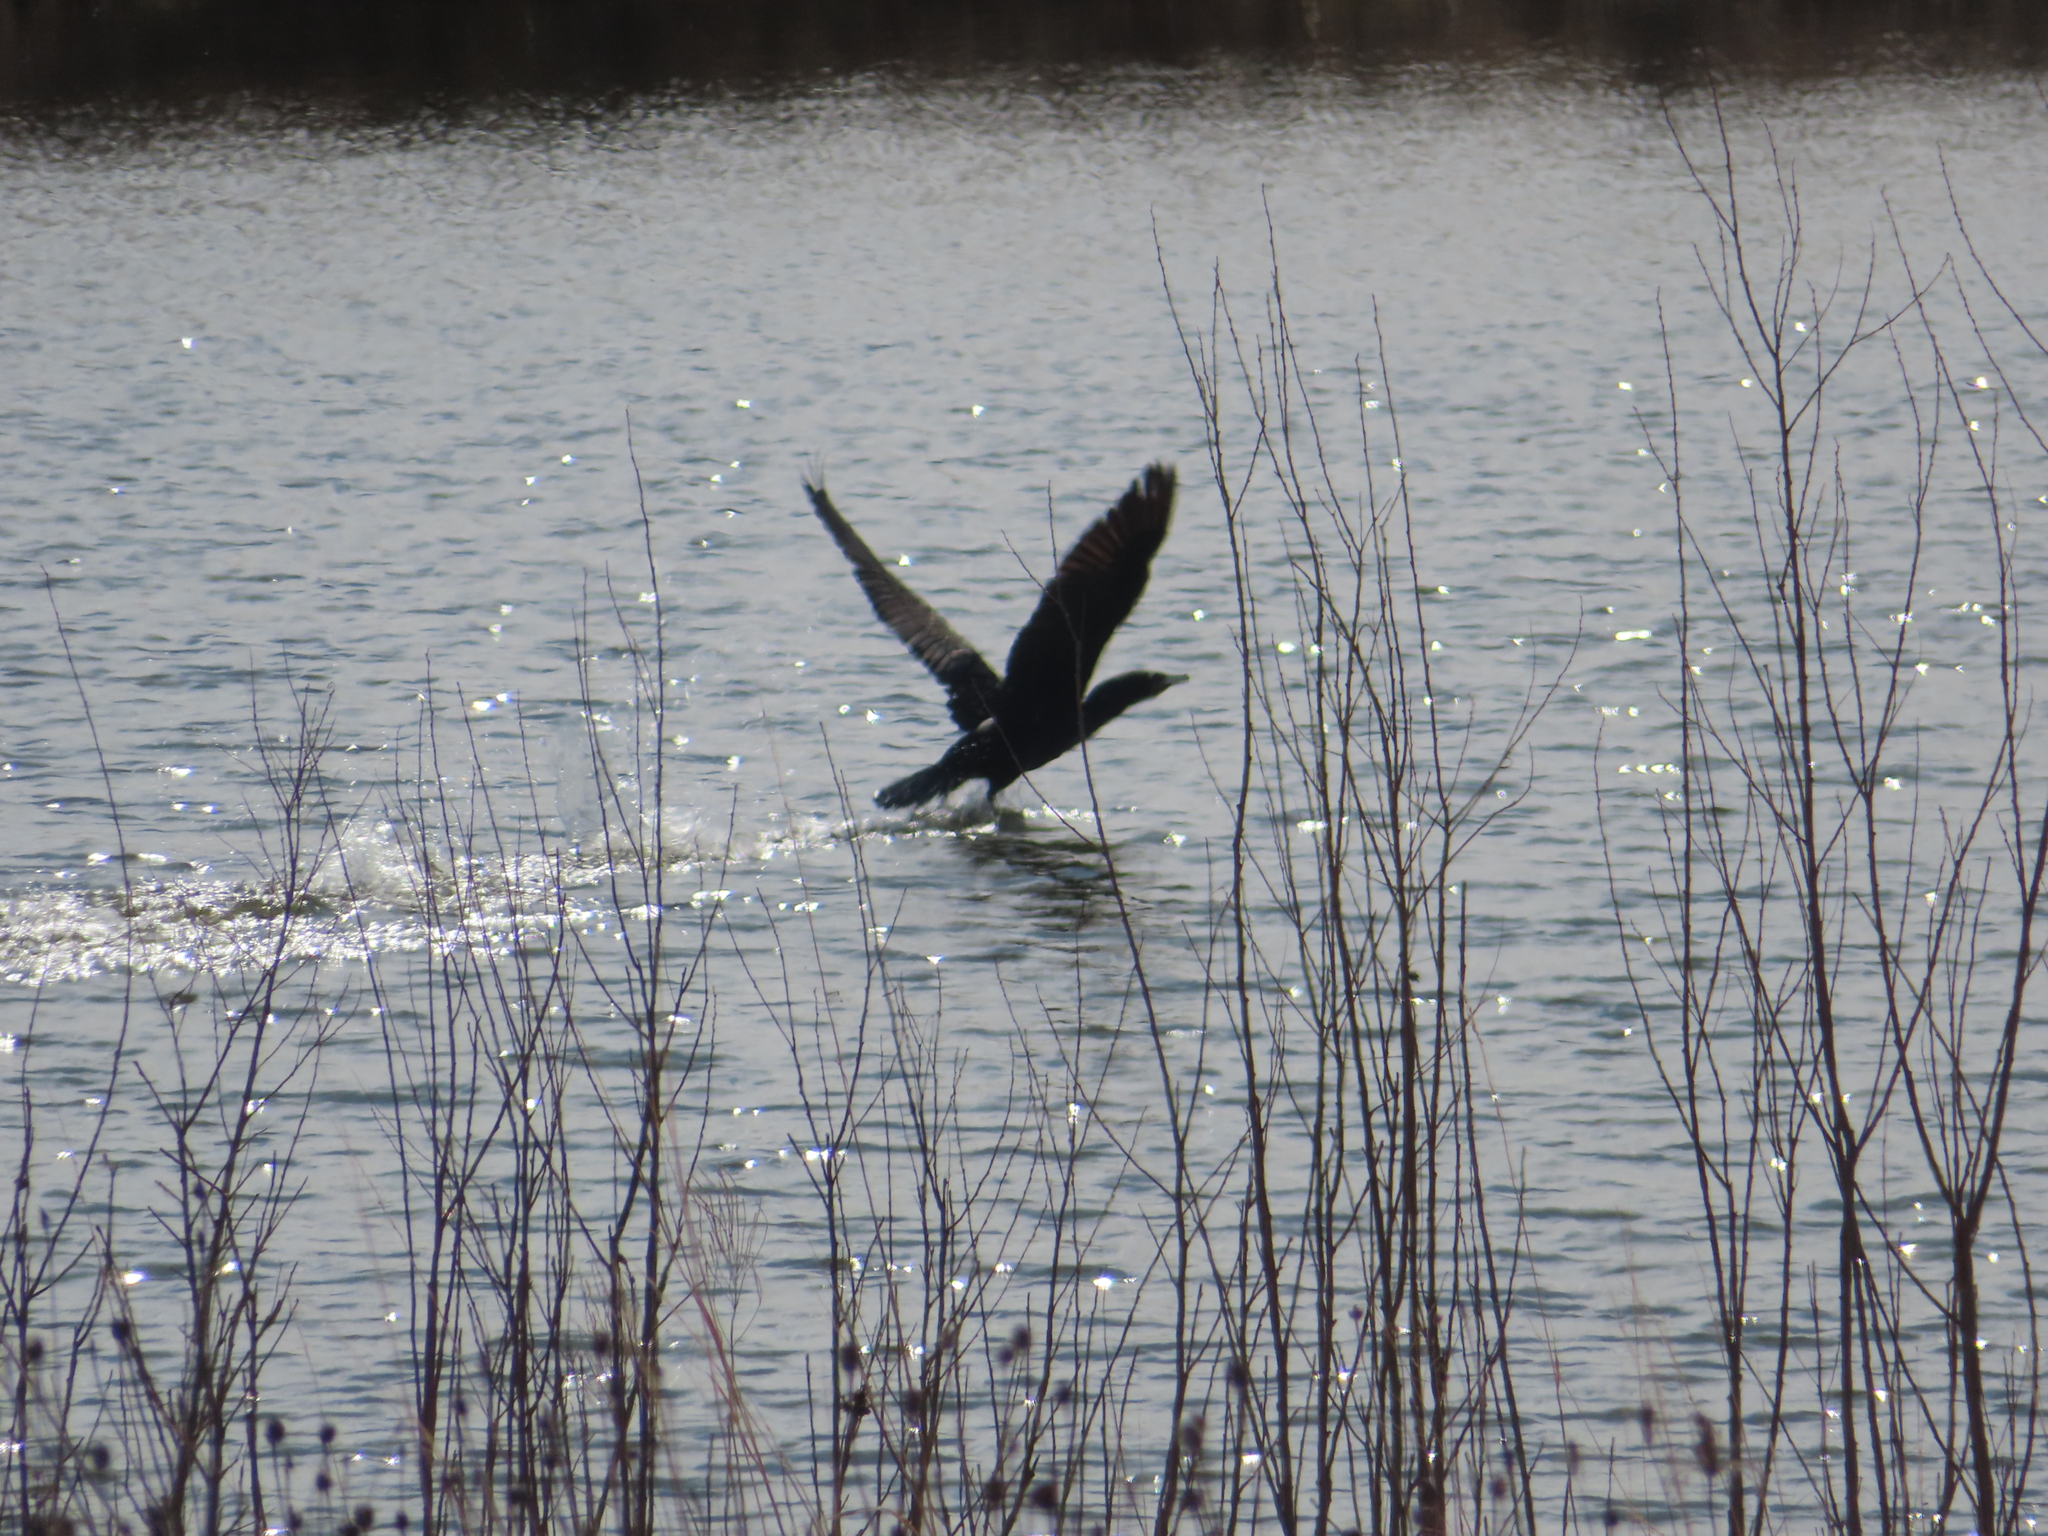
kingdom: Animalia
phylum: Chordata
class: Aves
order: Suliformes
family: Phalacrocoracidae
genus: Phalacrocorax
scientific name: Phalacrocorax auritus
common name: Double-crested cormorant
